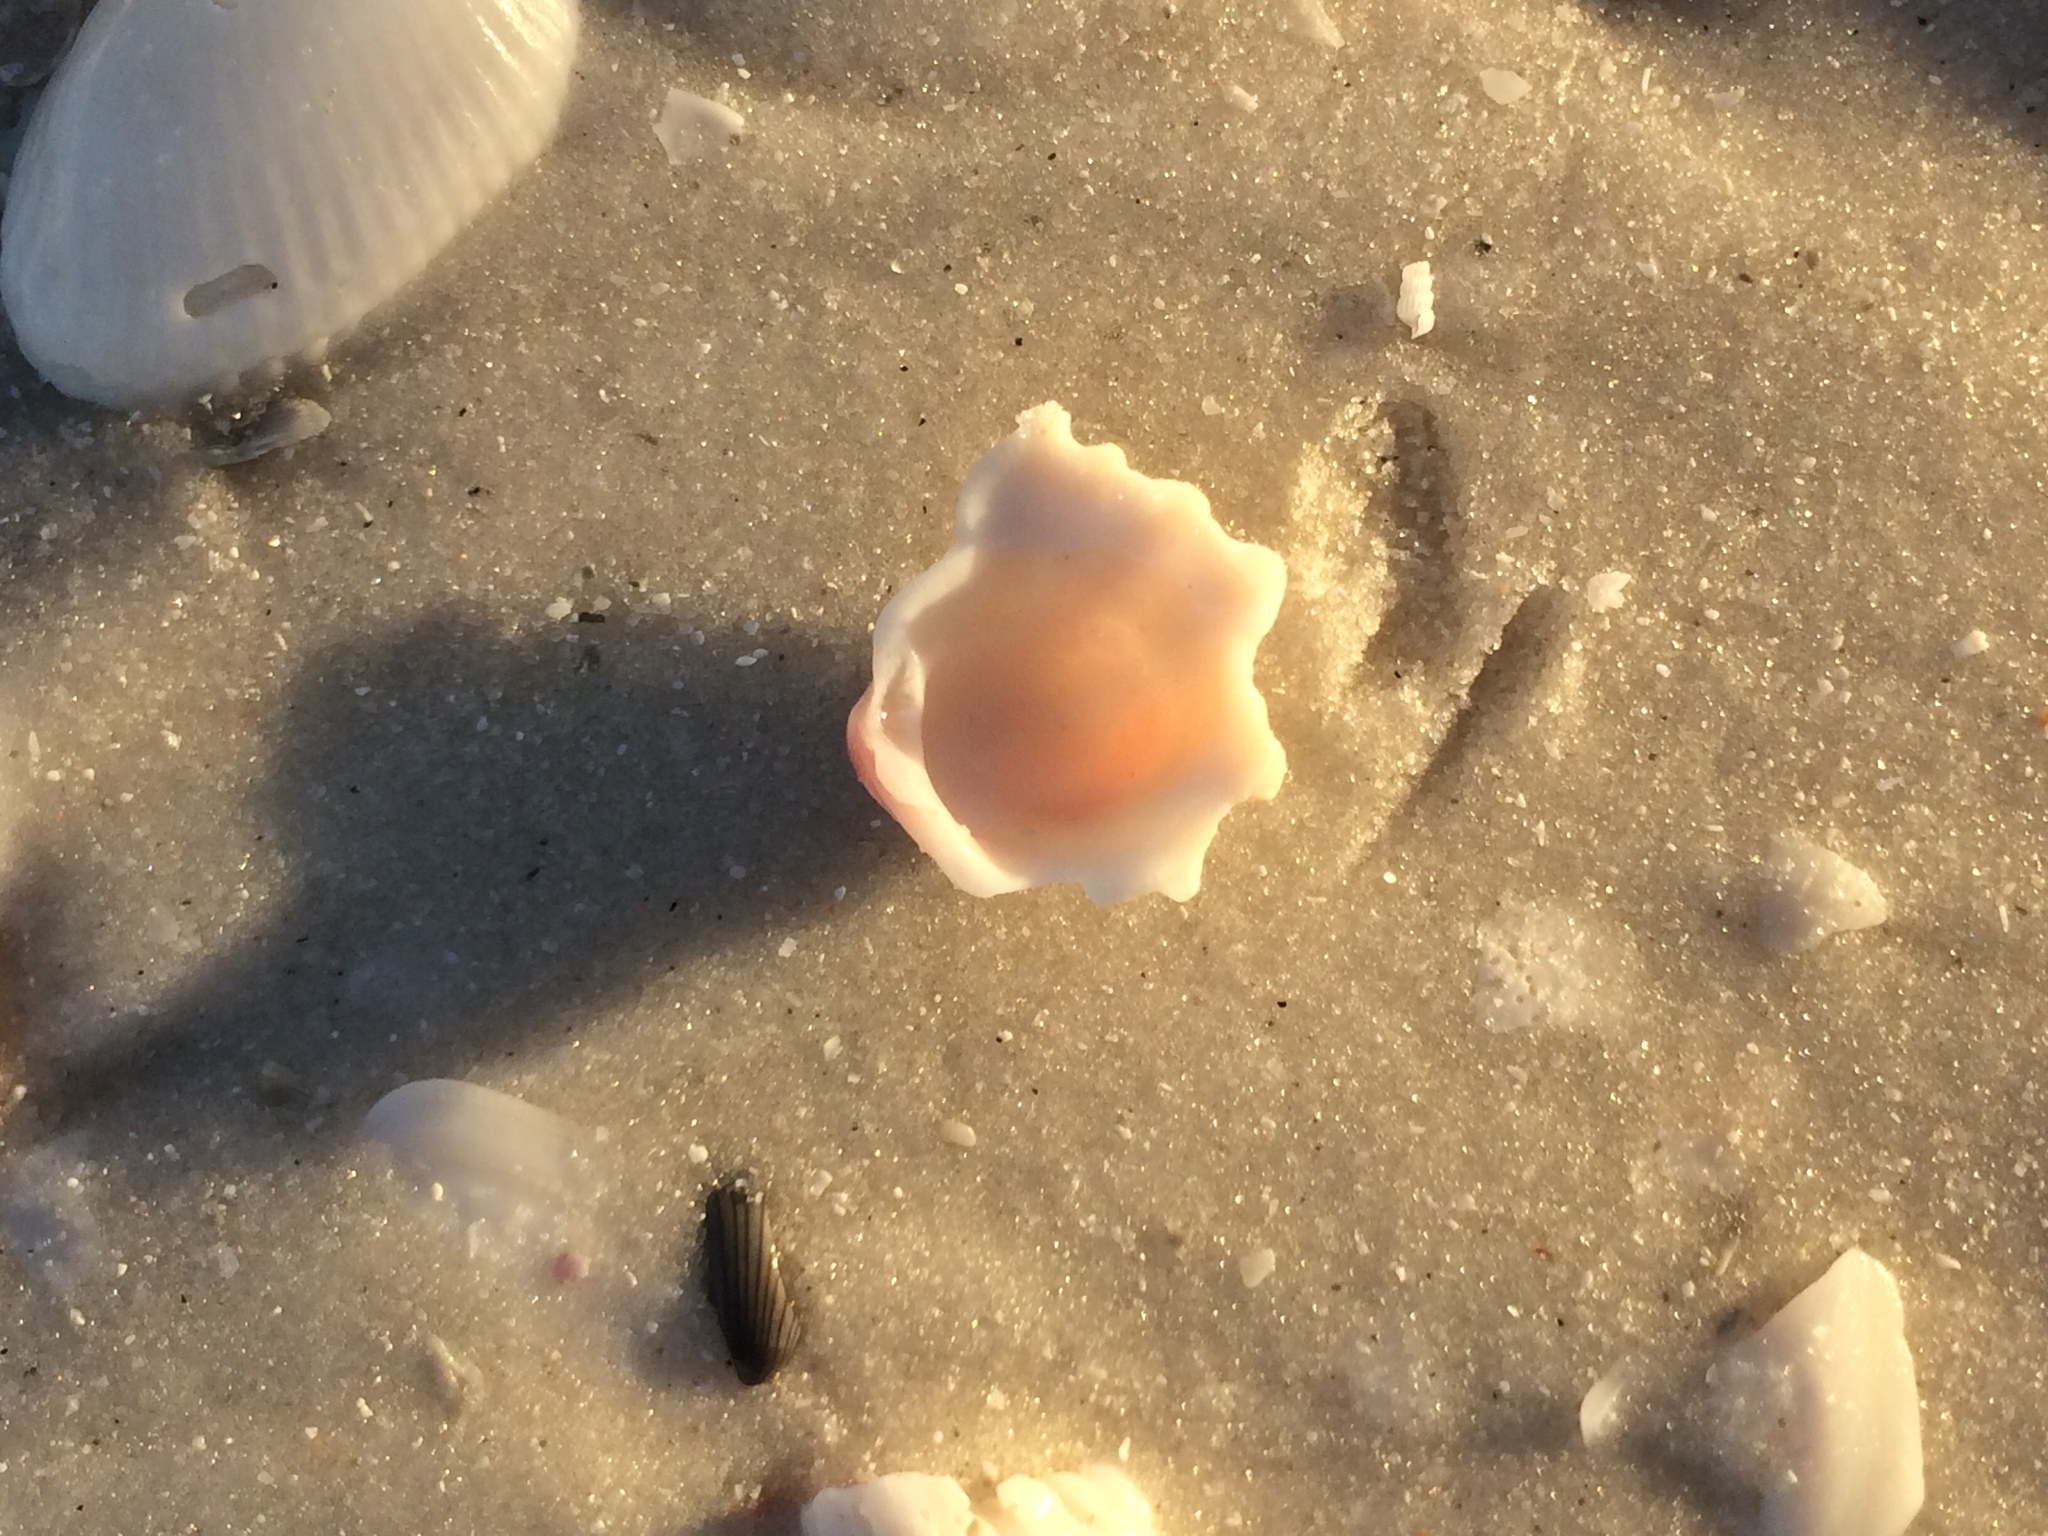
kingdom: Animalia
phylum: Mollusca
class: Bivalvia
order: Venerida
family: Chamidae
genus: Arcinella
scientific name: Arcinella cornuta
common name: Florida spiny jewel box
